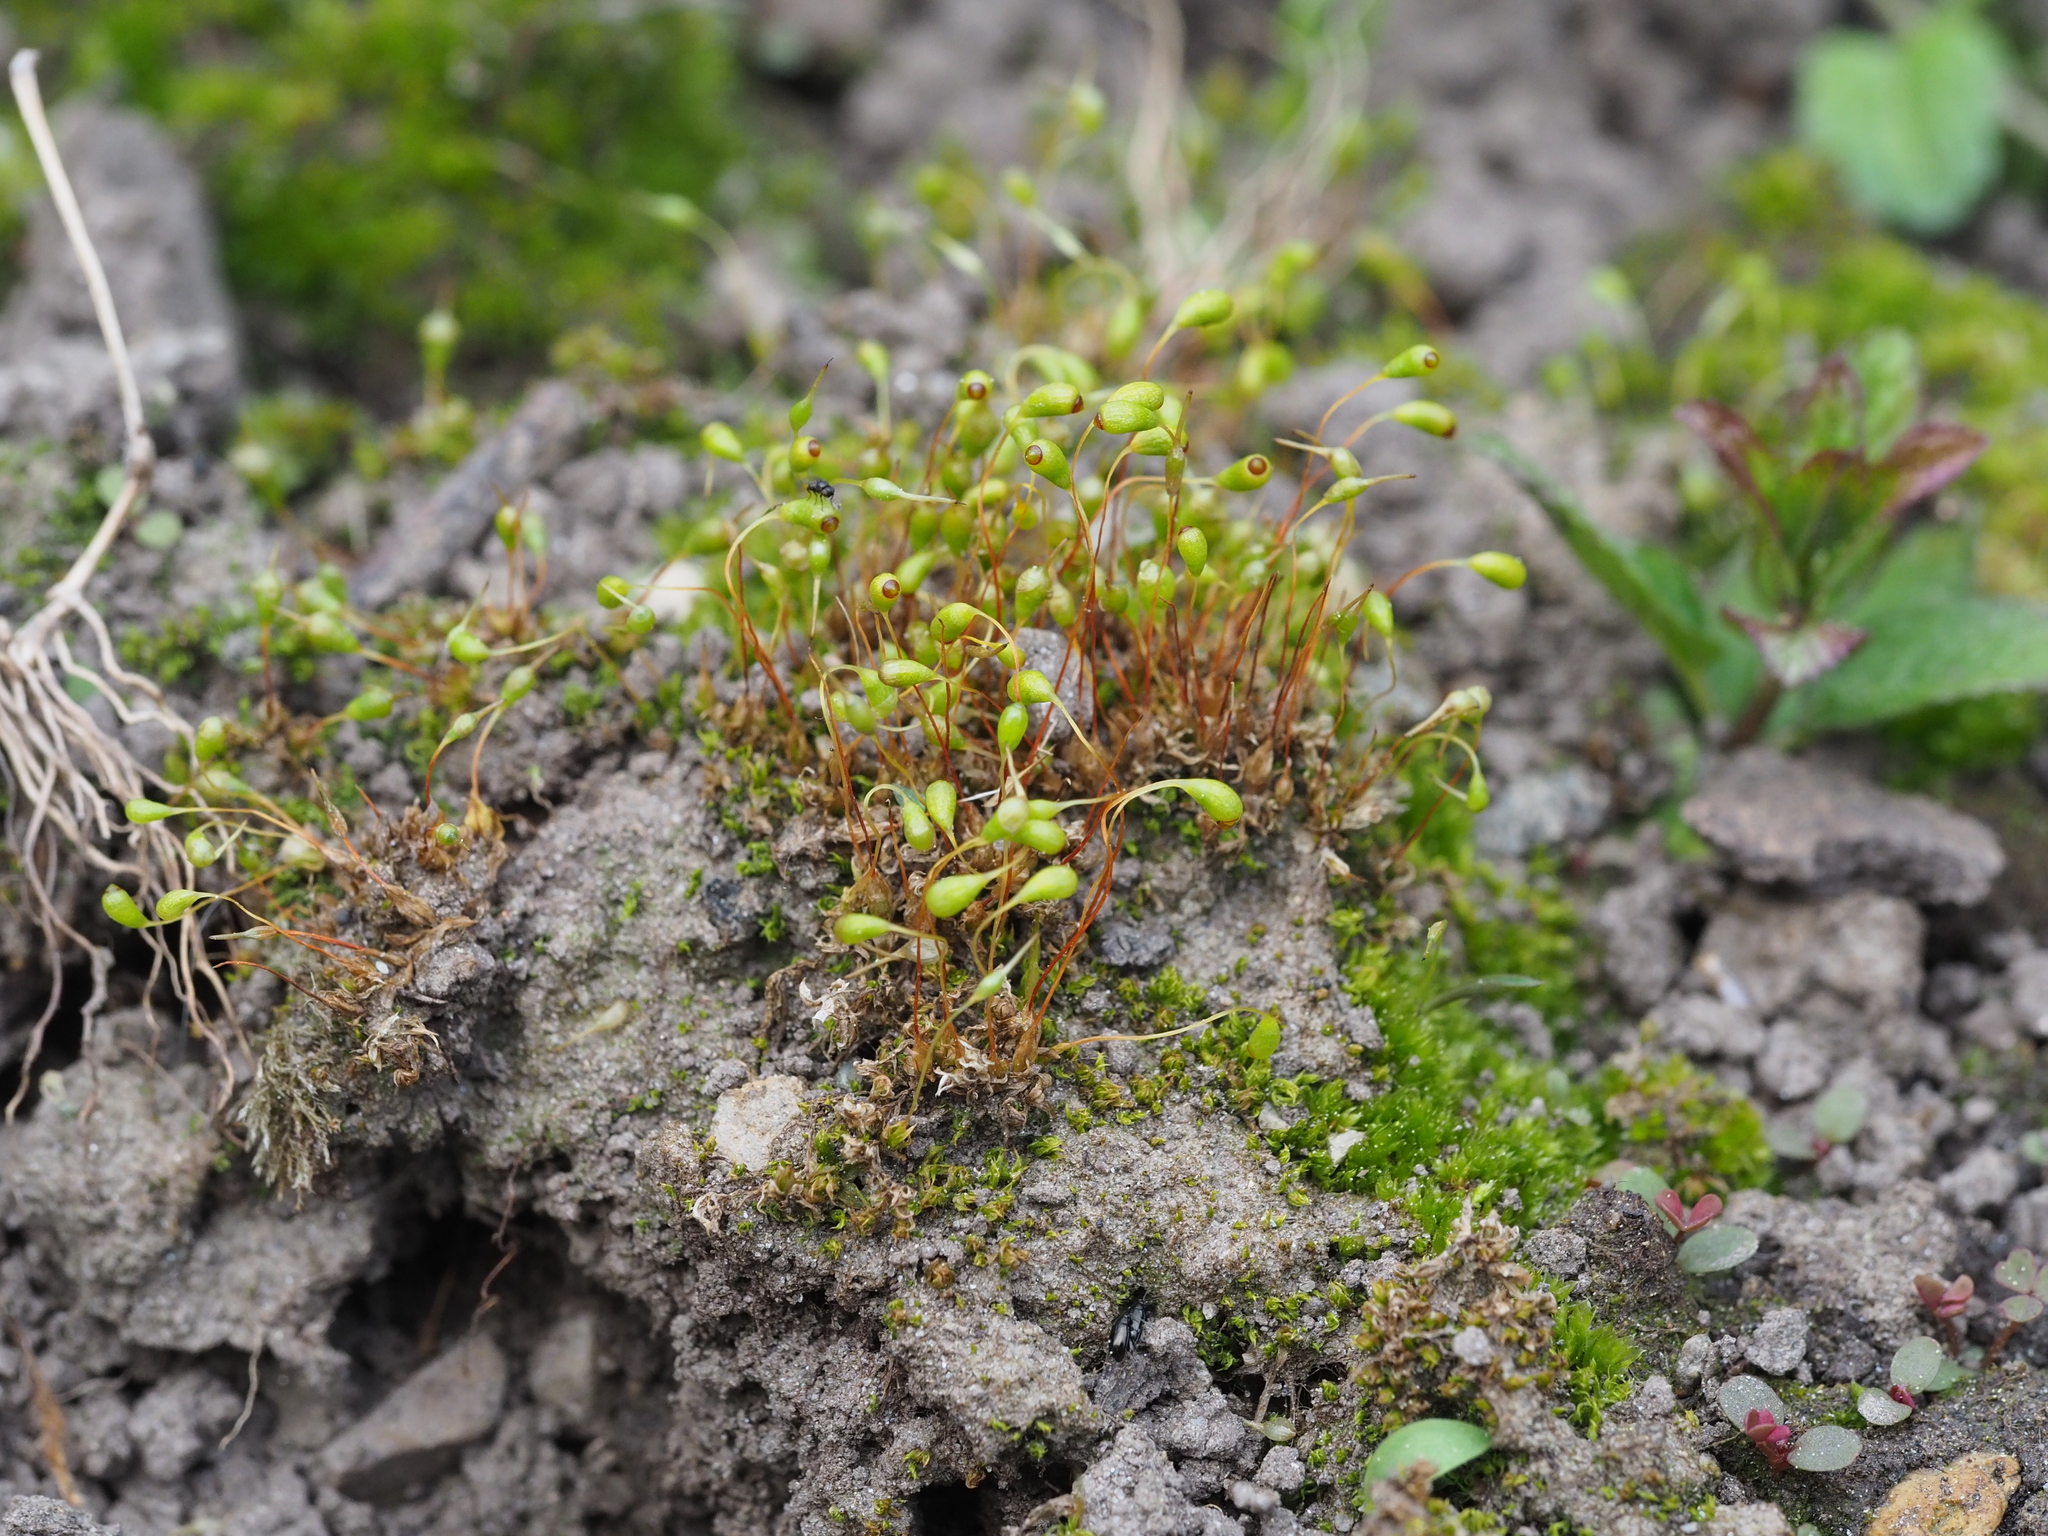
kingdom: Plantae
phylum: Bryophyta
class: Bryopsida
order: Funariales
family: Funariaceae
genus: Funaria
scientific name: Funaria hygrometrica
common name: Common cord moss
